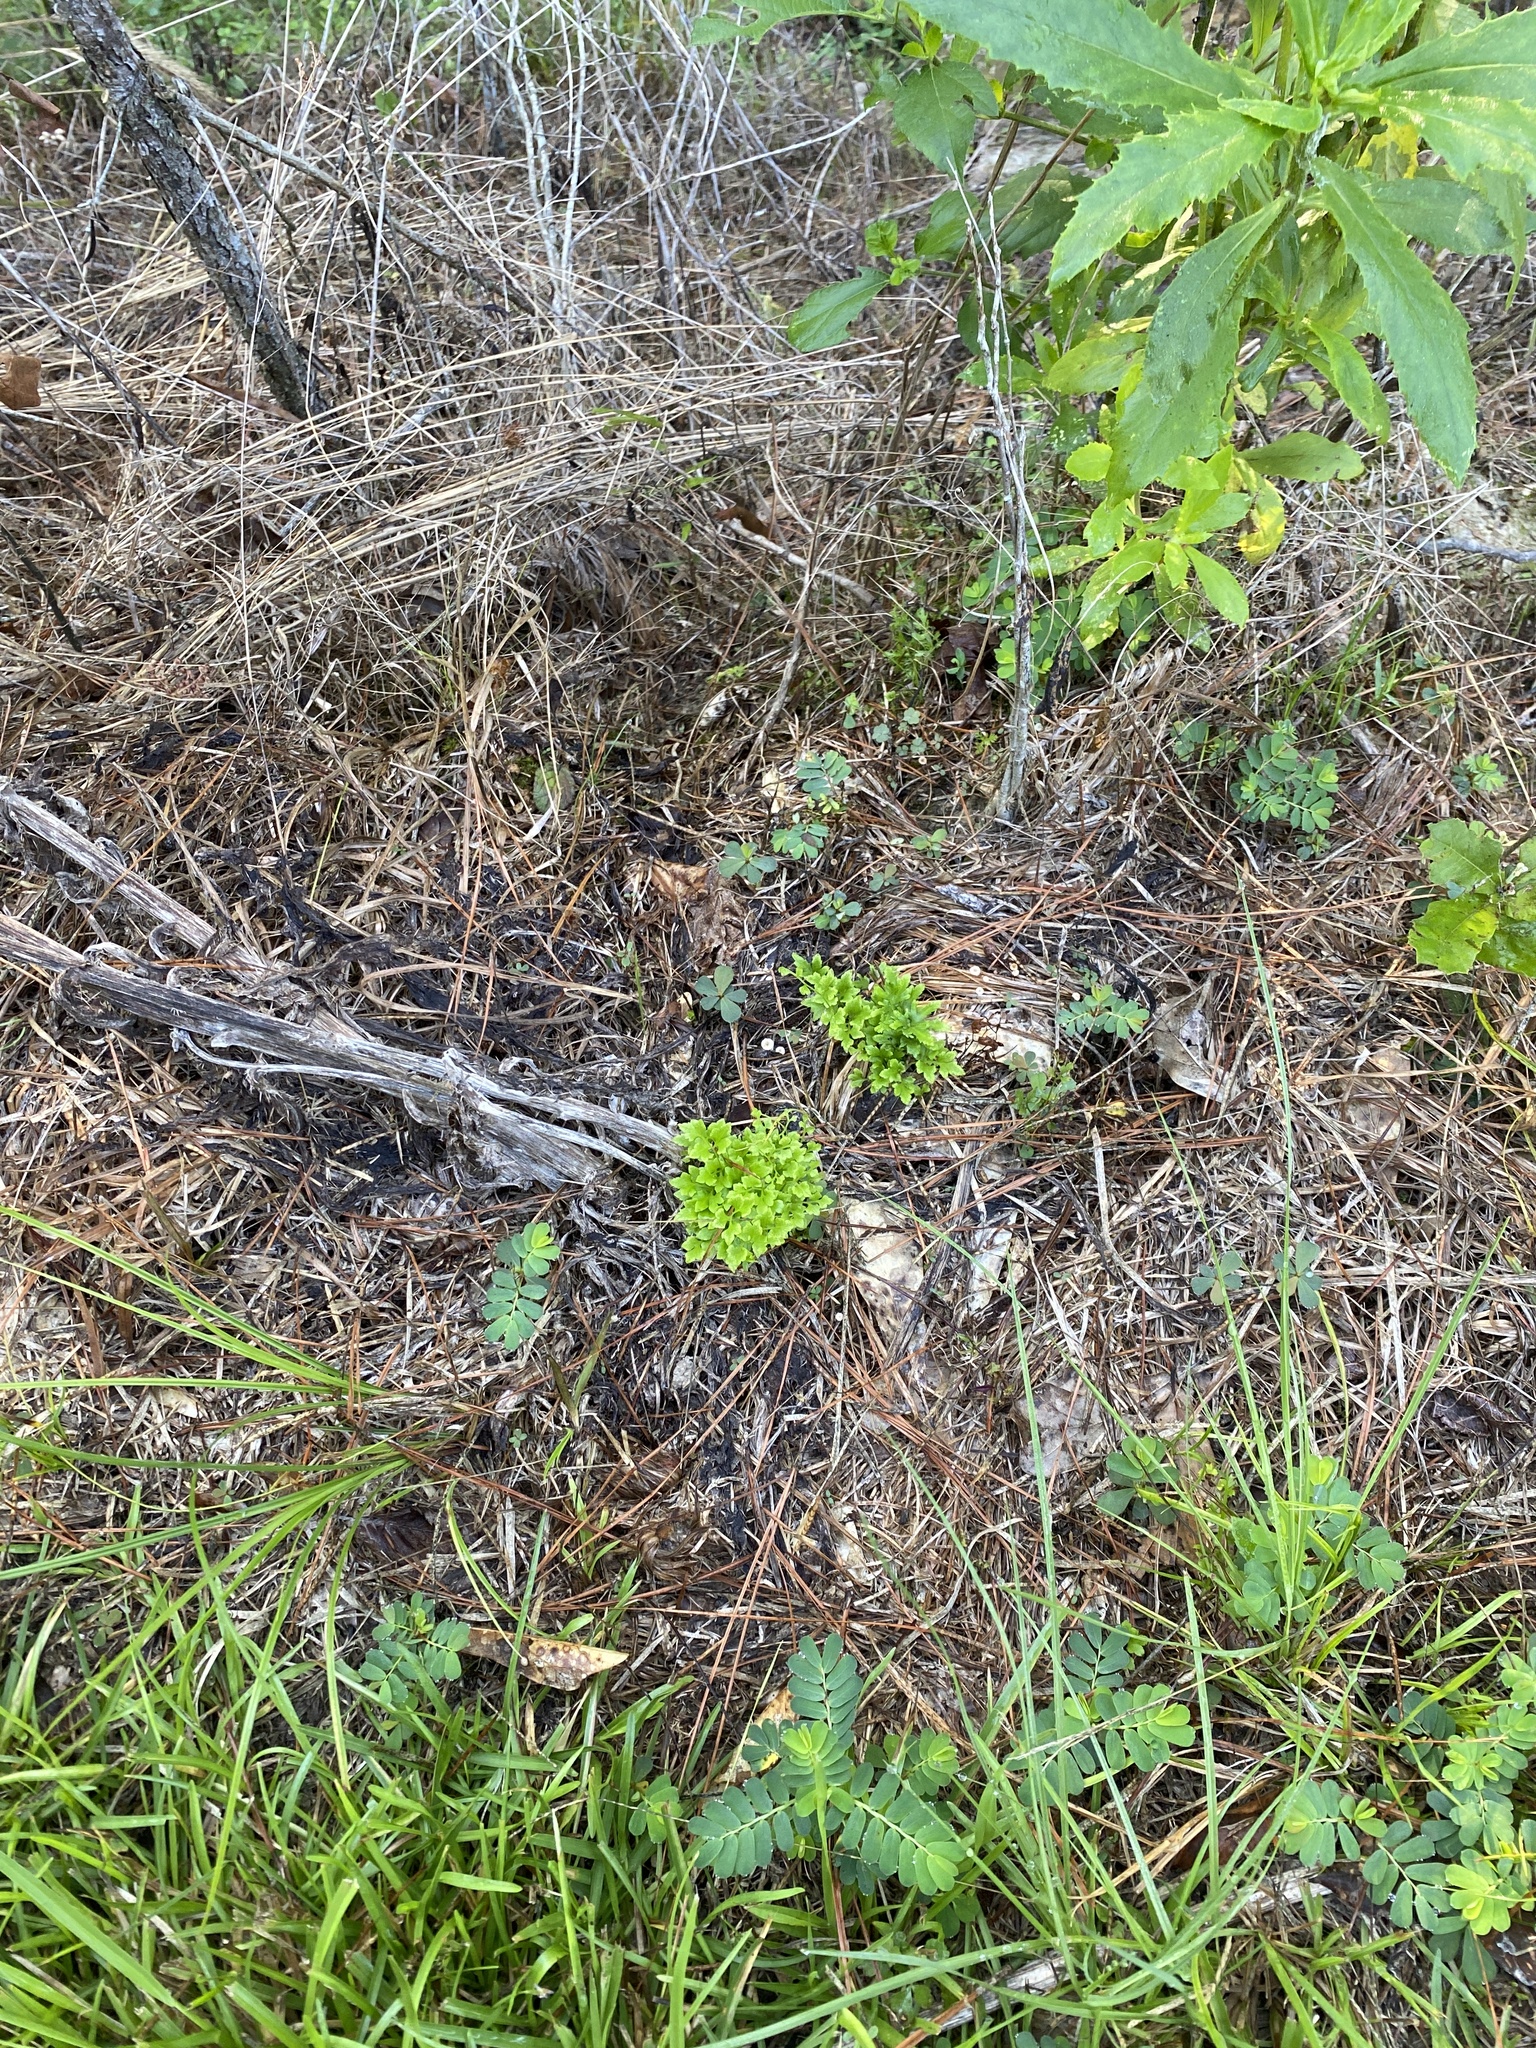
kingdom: Plantae
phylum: Tracheophyta
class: Polypodiopsida
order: Schizaeales
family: Lygodiaceae
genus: Lygodium
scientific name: Lygodium japonicum
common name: Japanese climbing fern
